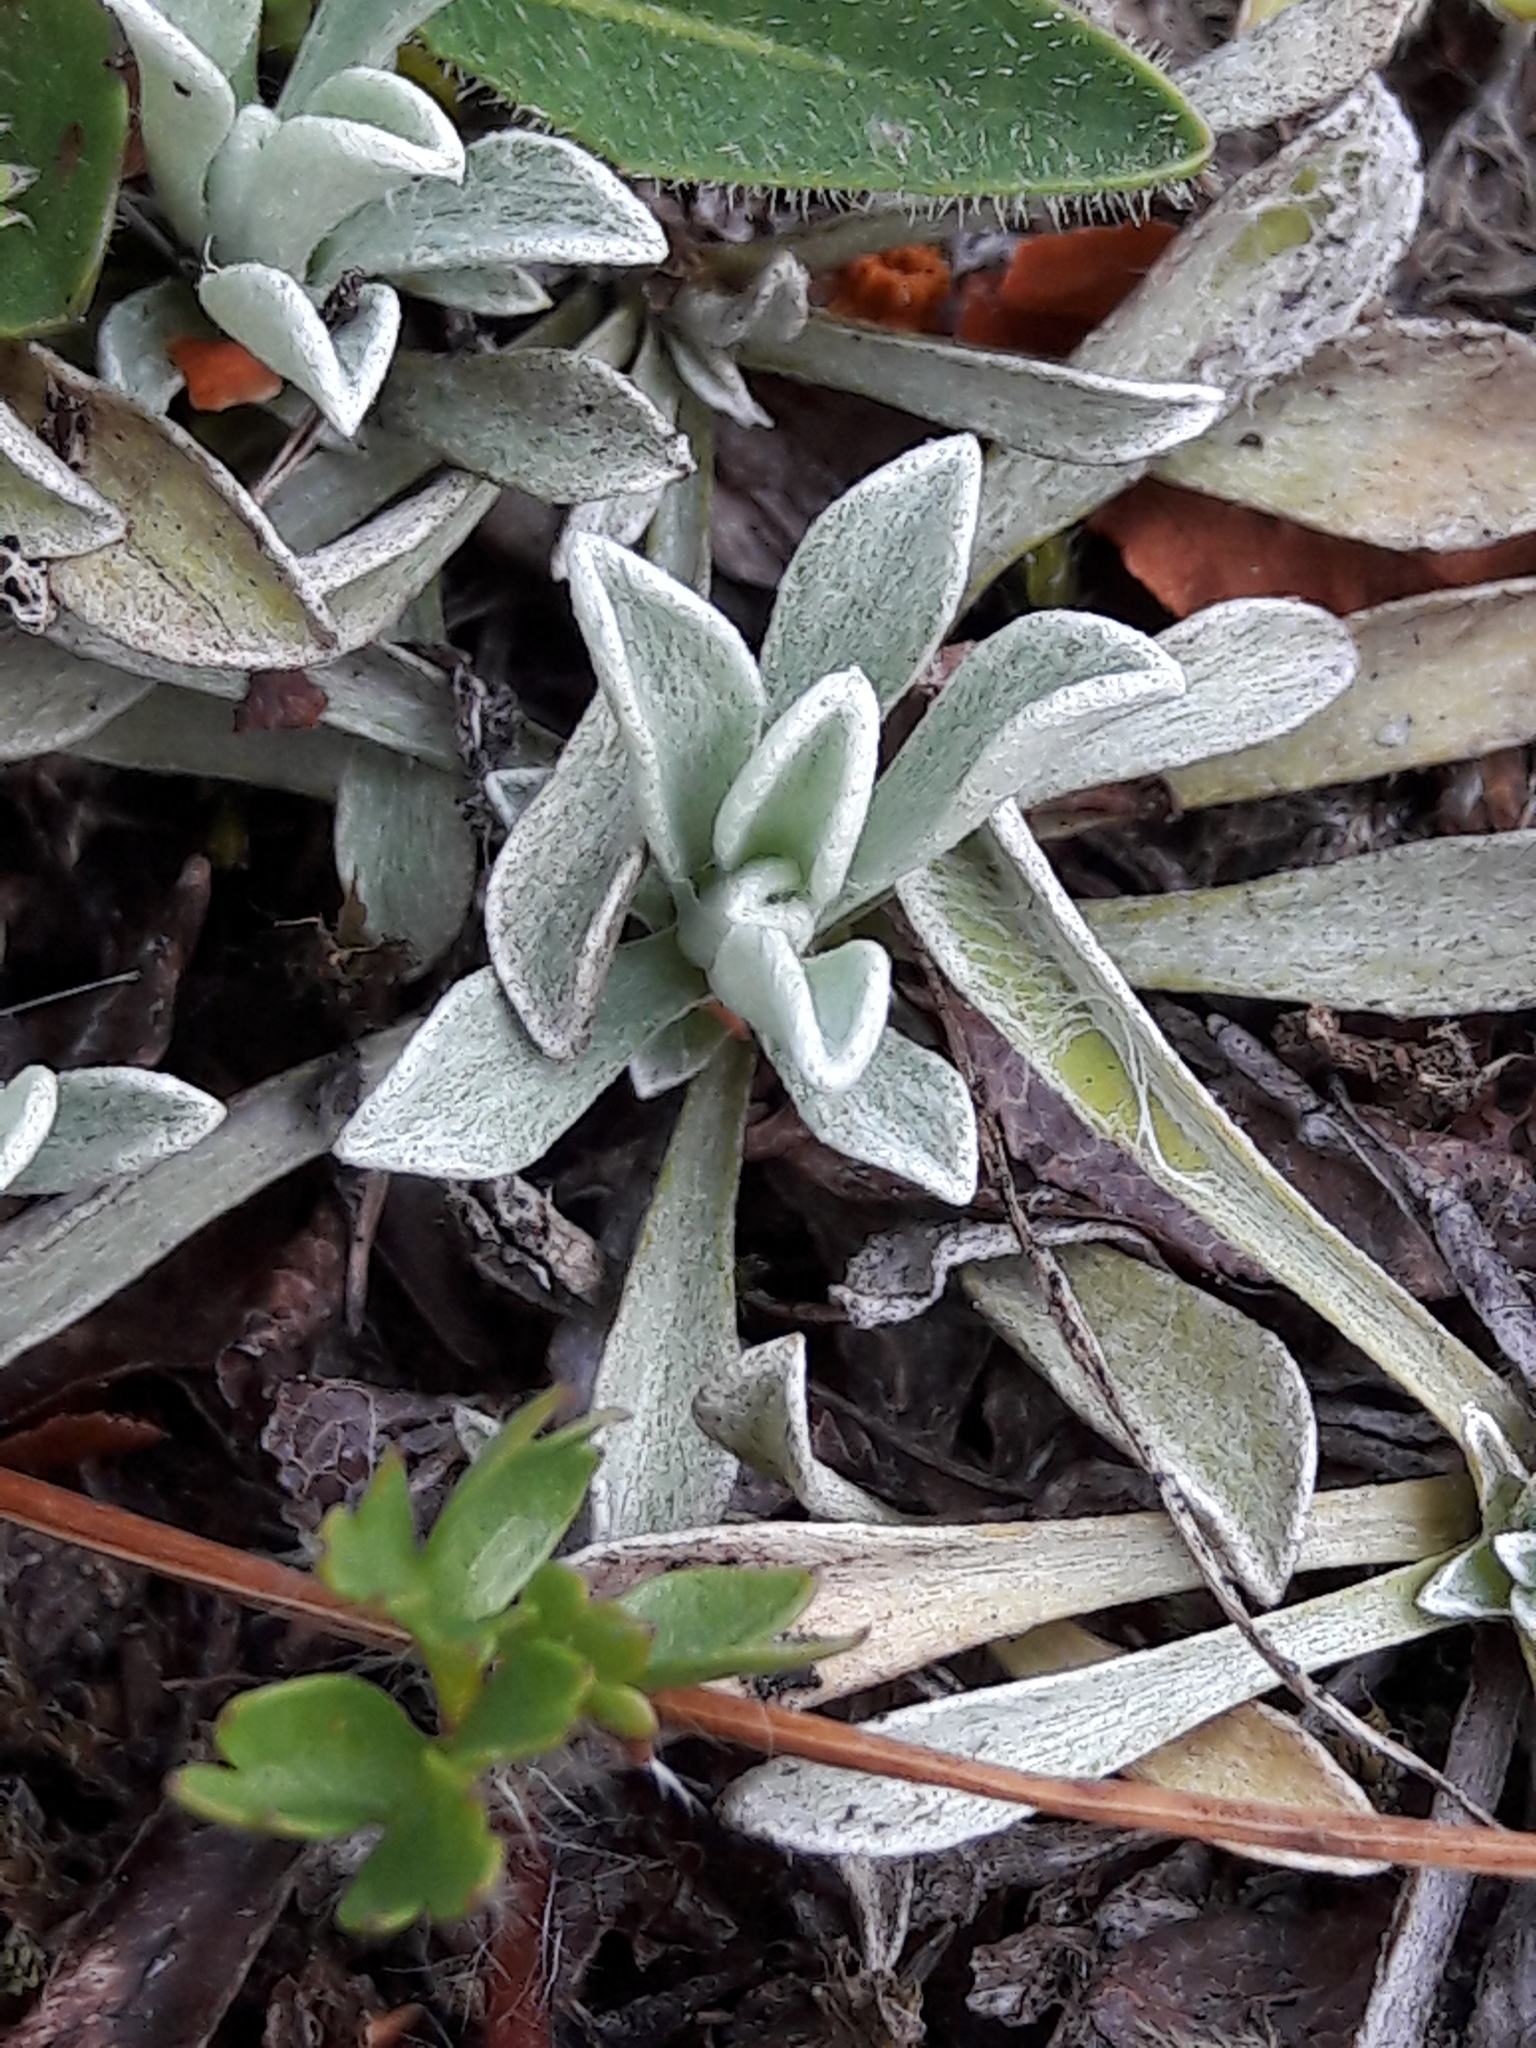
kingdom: Plantae
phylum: Tracheophyta
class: Magnoliopsida
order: Asterales
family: Asteraceae
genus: Antennaria
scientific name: Antennaria dioica
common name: Mountain everlasting
